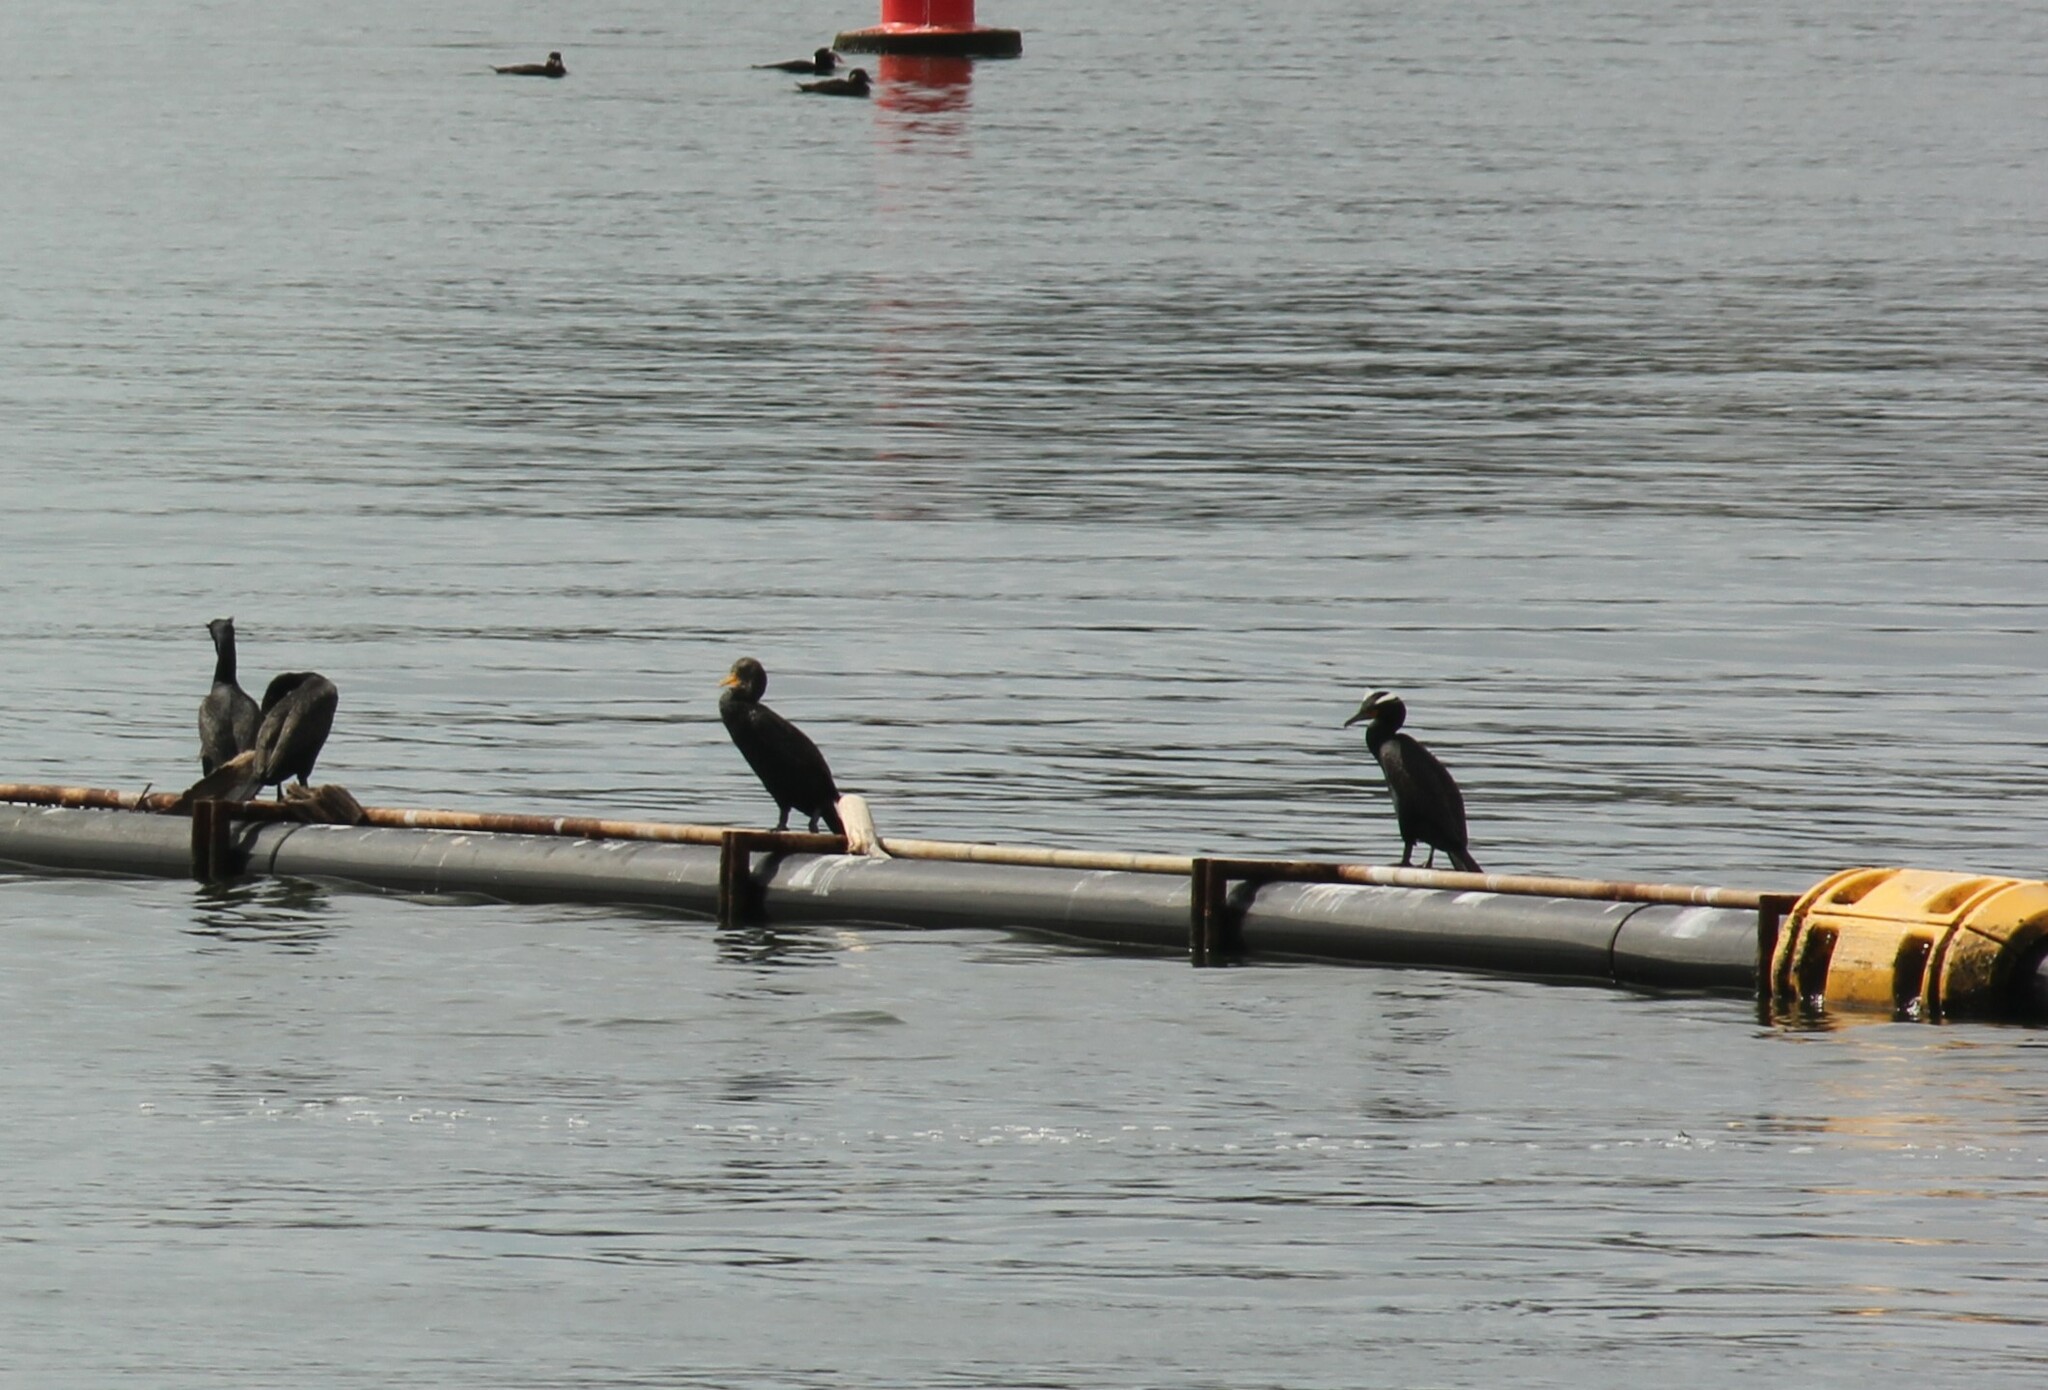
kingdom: Animalia
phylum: Chordata
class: Aves
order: Suliformes
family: Phalacrocoracidae
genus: Phalacrocorax
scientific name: Phalacrocorax auritus
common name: Double-crested cormorant
